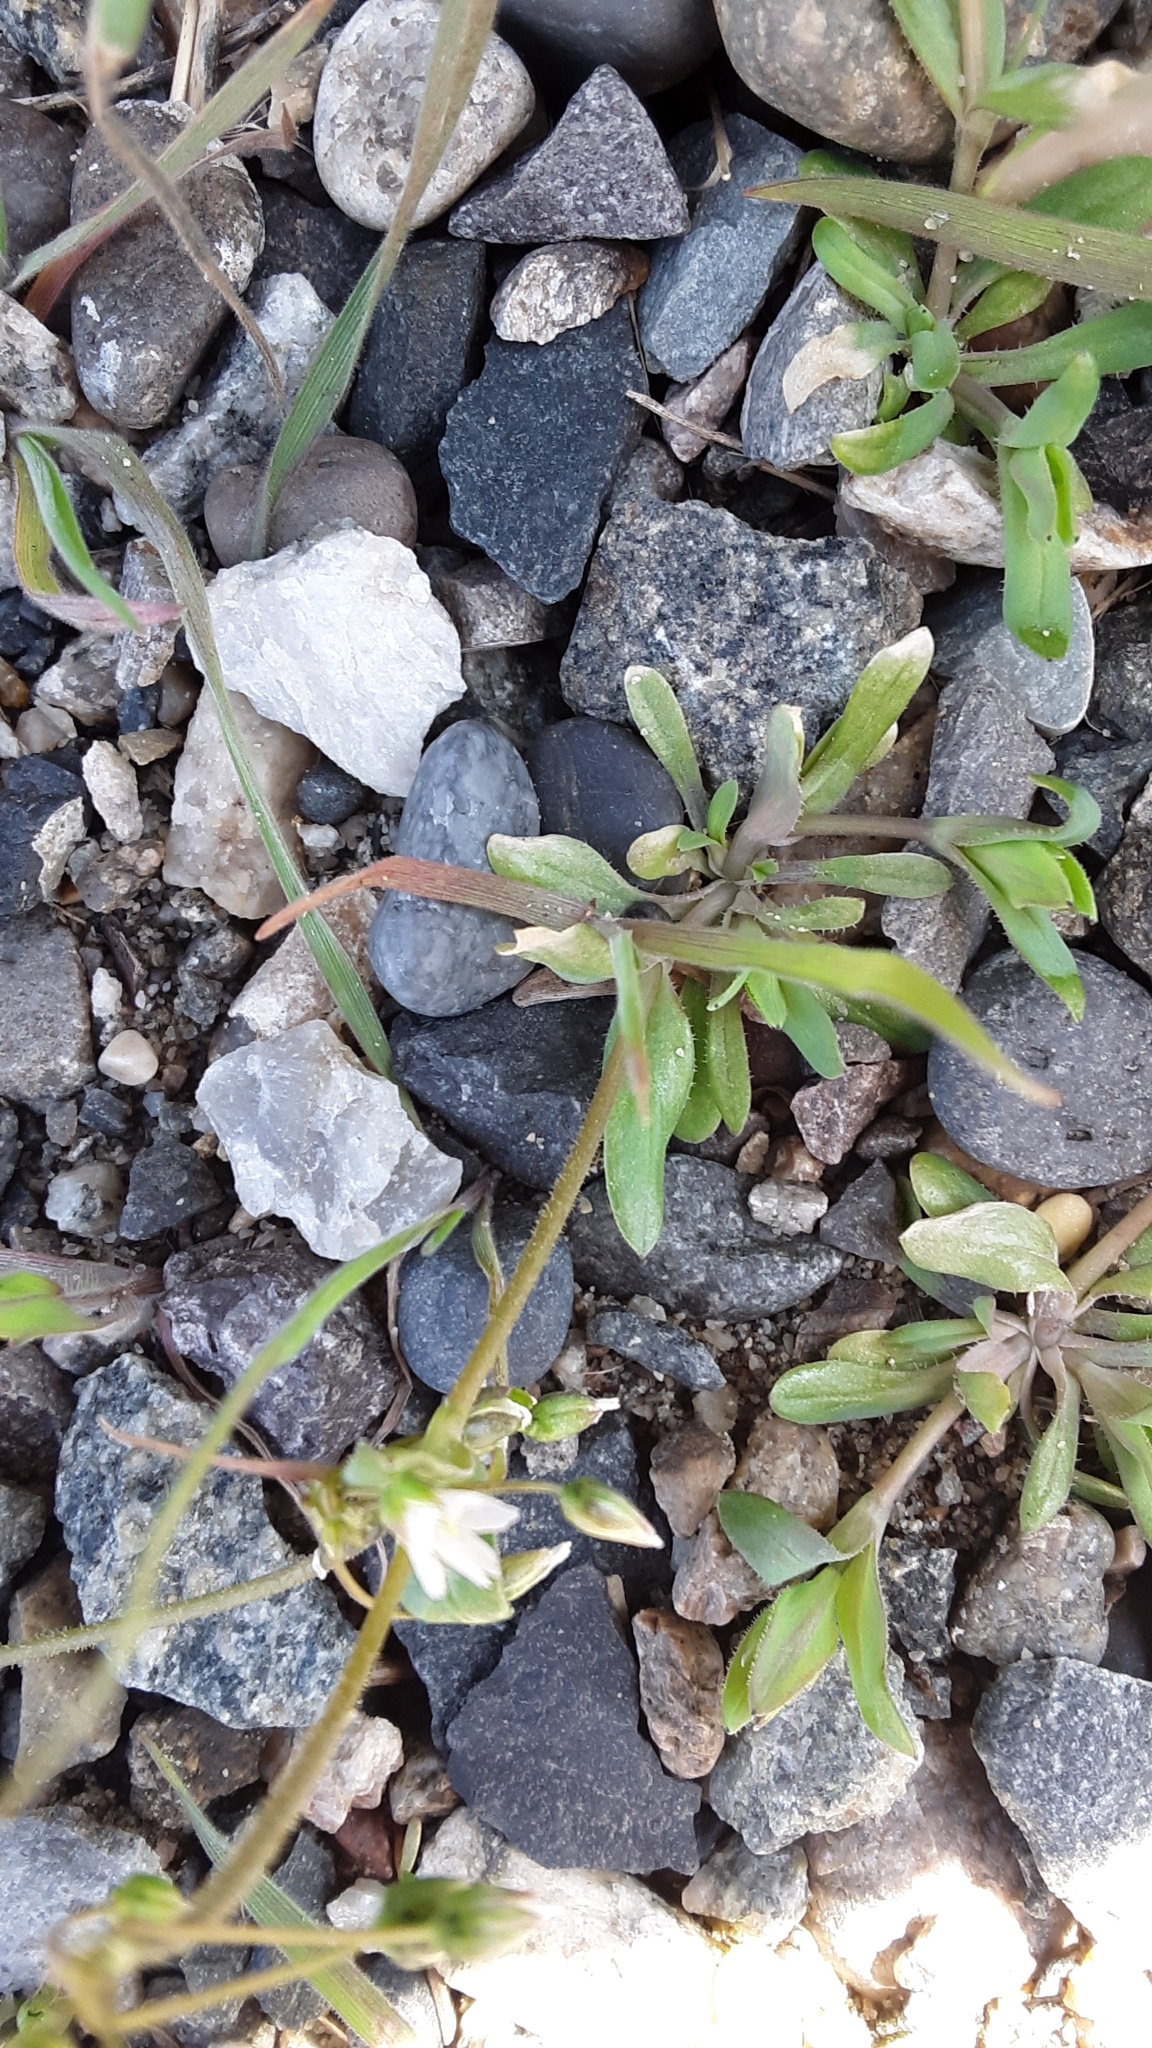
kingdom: Plantae
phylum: Tracheophyta
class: Magnoliopsida
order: Caryophyllales
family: Caryophyllaceae
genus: Holosteum
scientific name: Holosteum umbellatum
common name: Jagged chickweed
